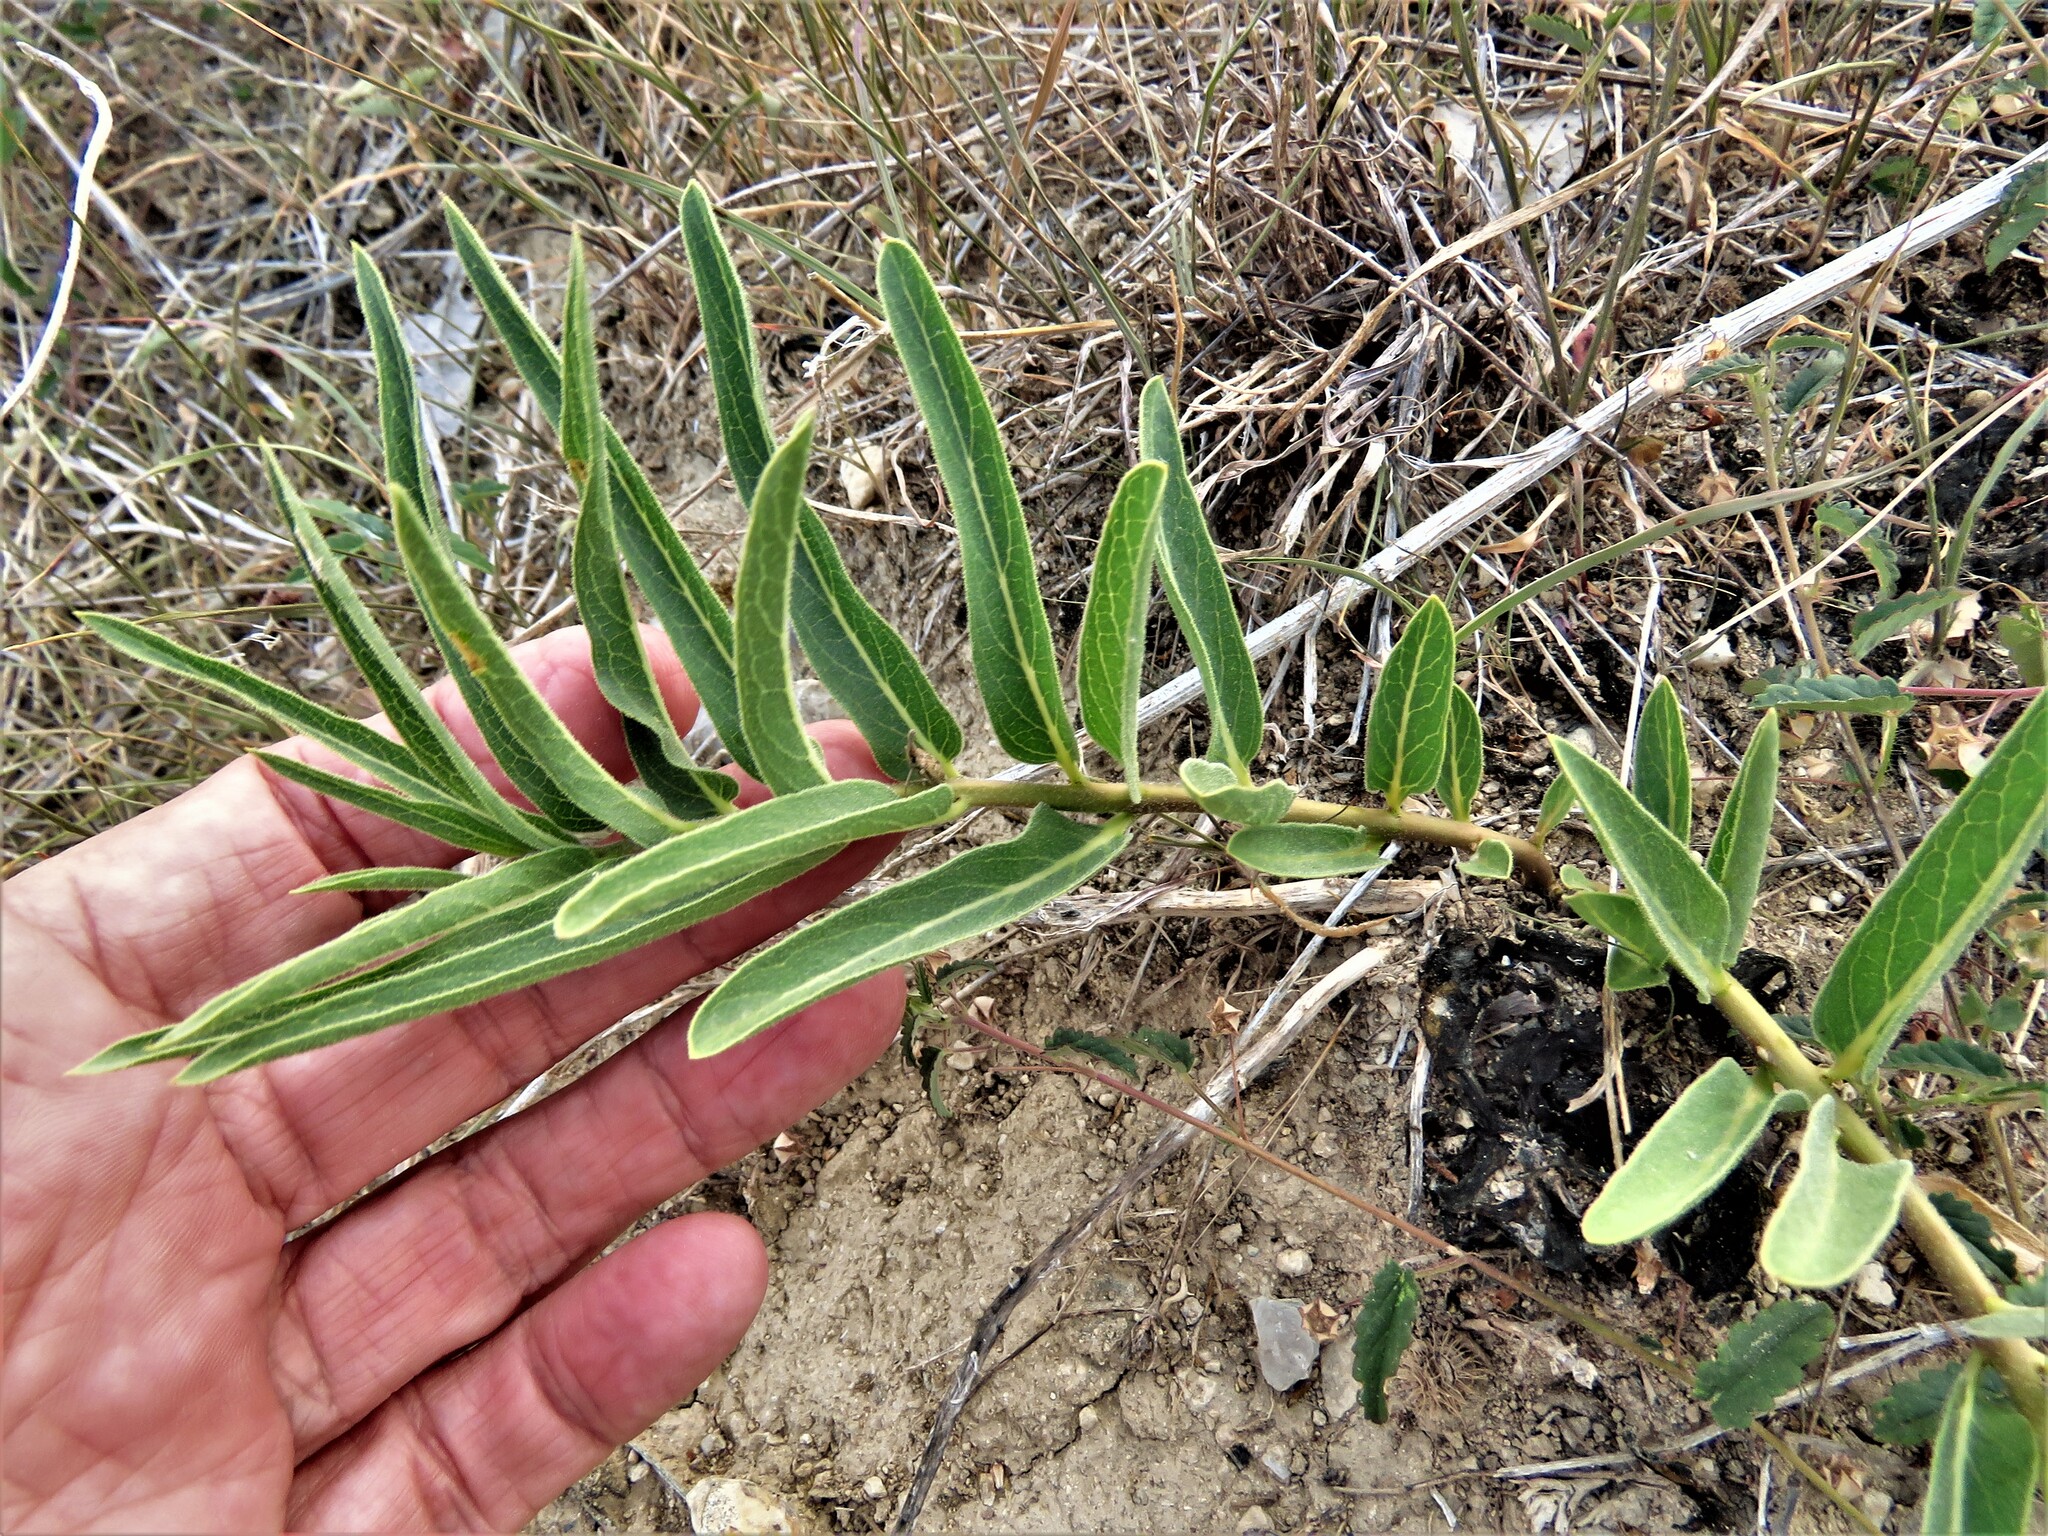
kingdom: Plantae
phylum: Tracheophyta
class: Magnoliopsida
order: Gentianales
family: Apocynaceae
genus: Asclepias
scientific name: Asclepias asperula
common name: Antelope horns
